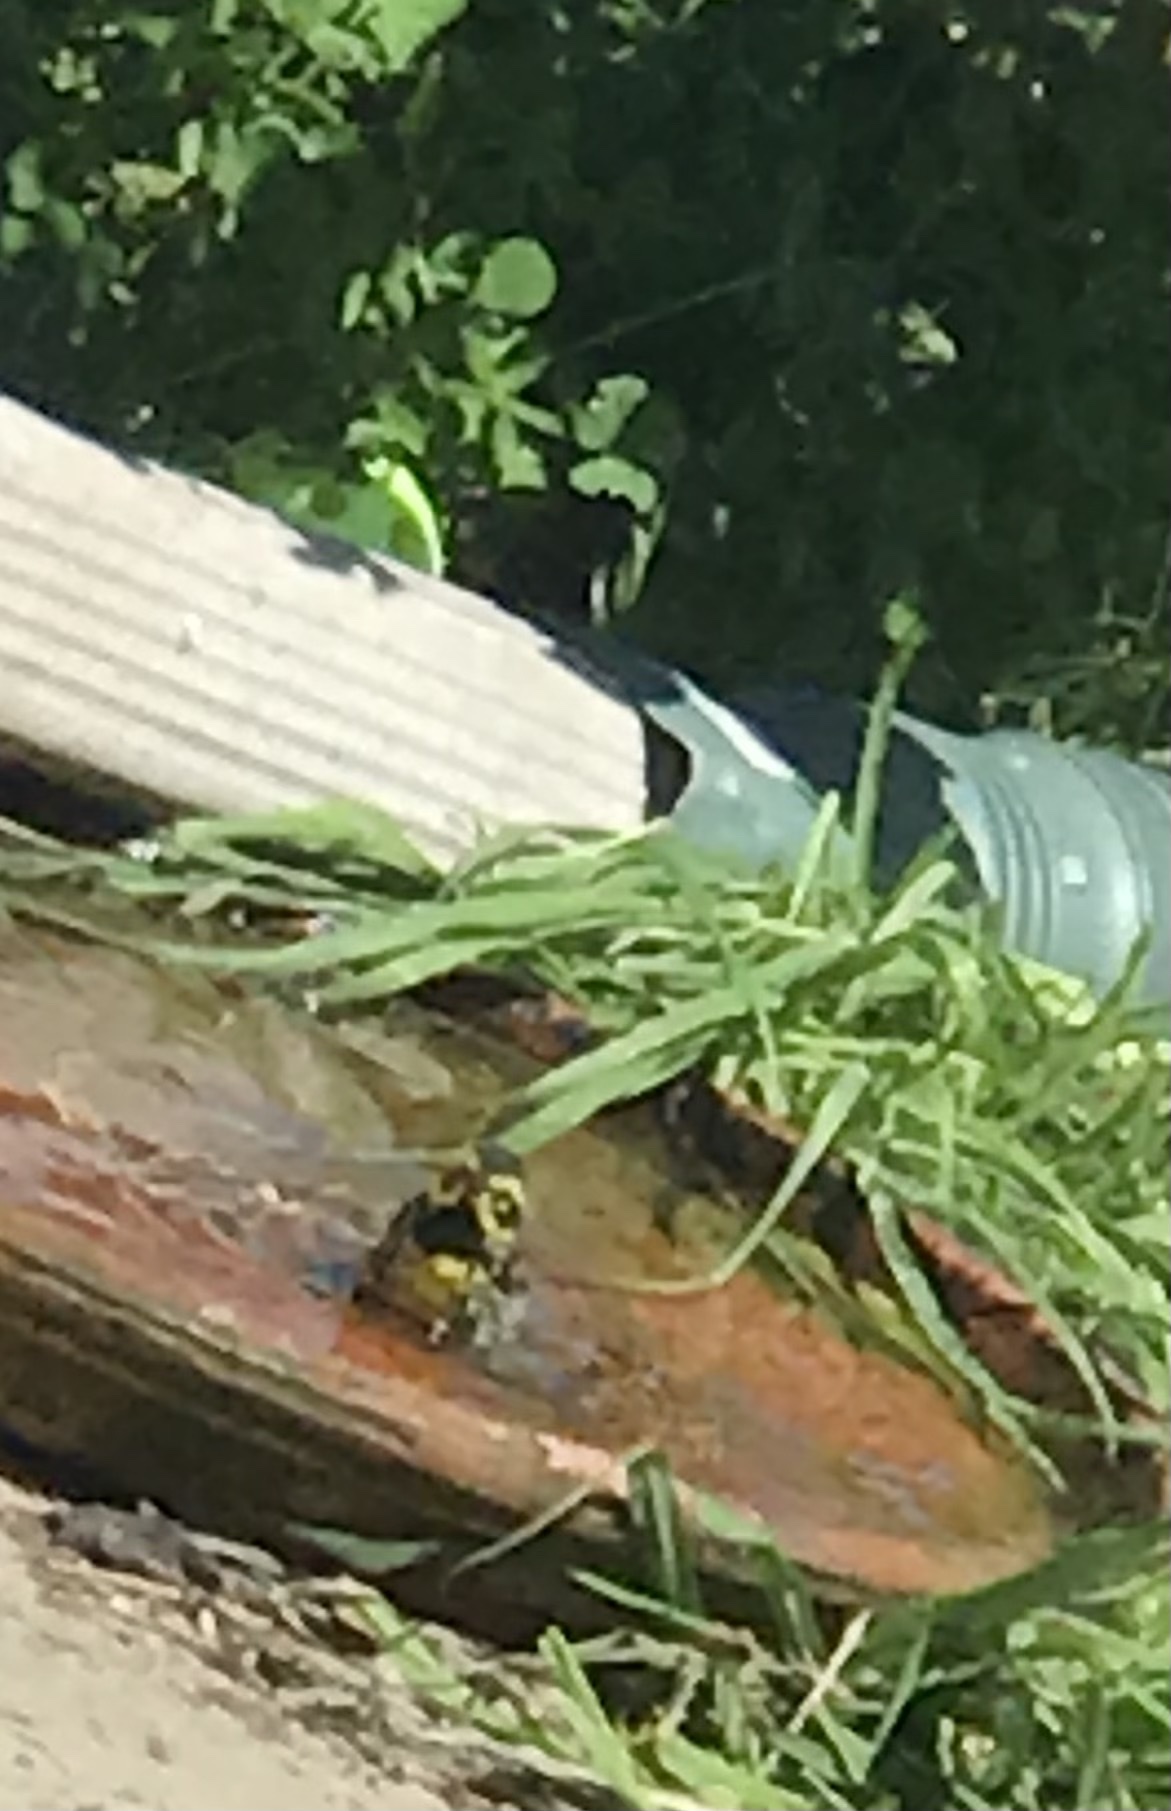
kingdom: Animalia
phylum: Chordata
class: Aves
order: Passeriformes
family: Parulidae
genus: Setophaga
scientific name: Setophaga townsendi
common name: Townsend's warbler
